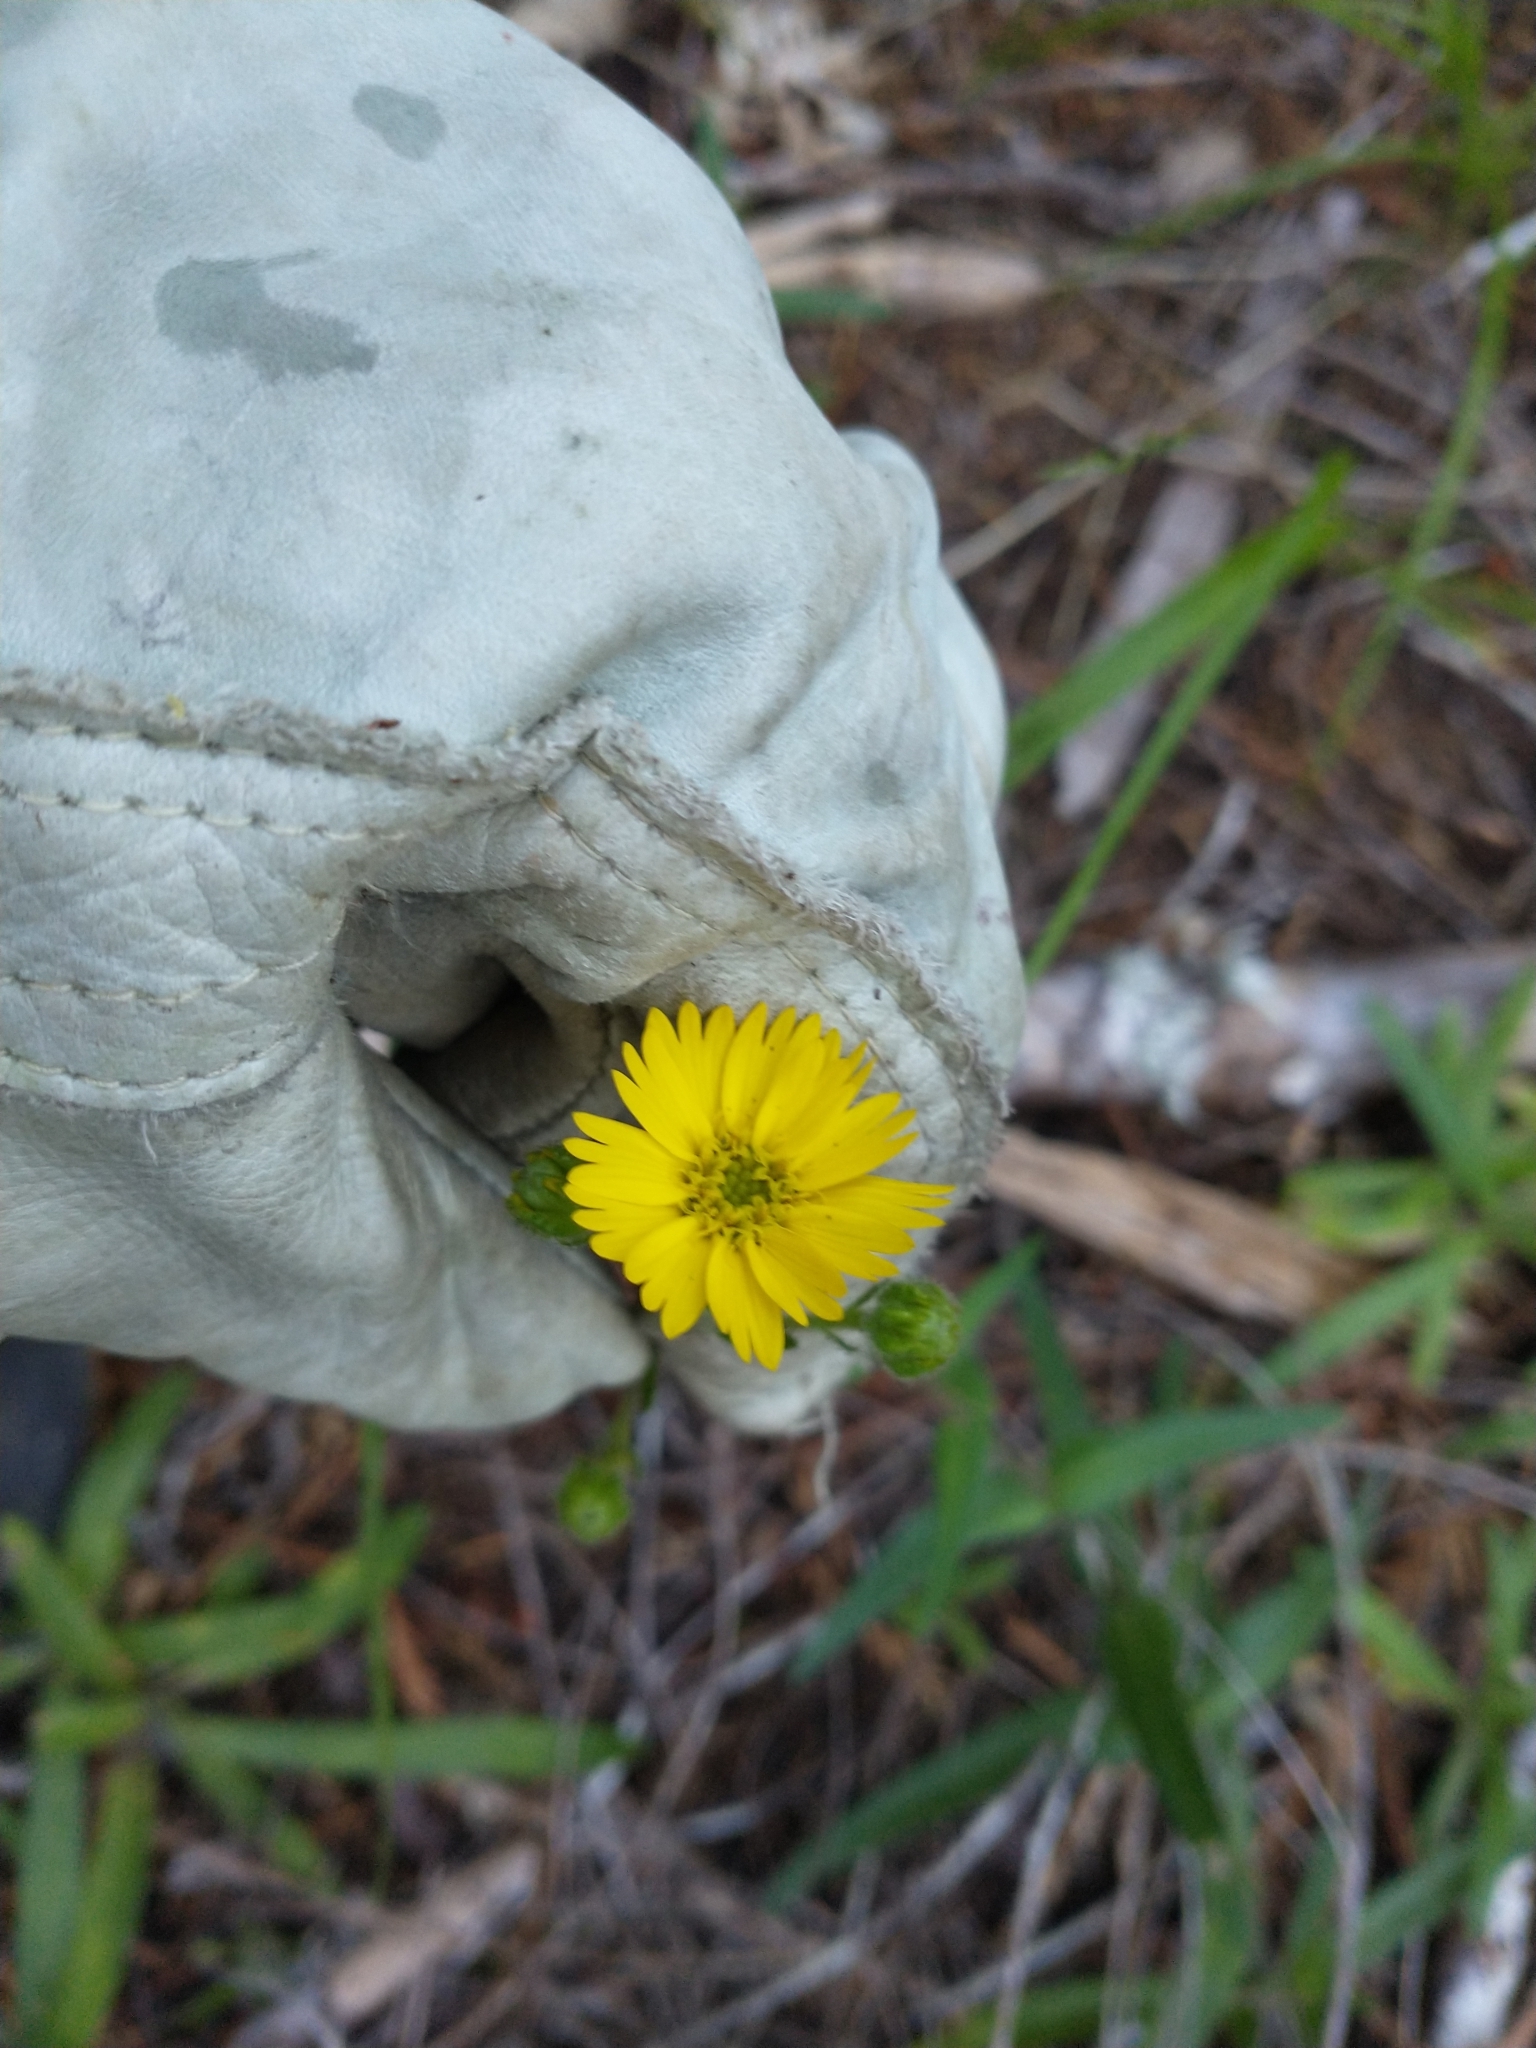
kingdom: Plantae
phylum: Tracheophyta
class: Magnoliopsida
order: Asterales
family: Asteraceae
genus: Anisocarpus
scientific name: Anisocarpus madioides
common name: Woodland madia
